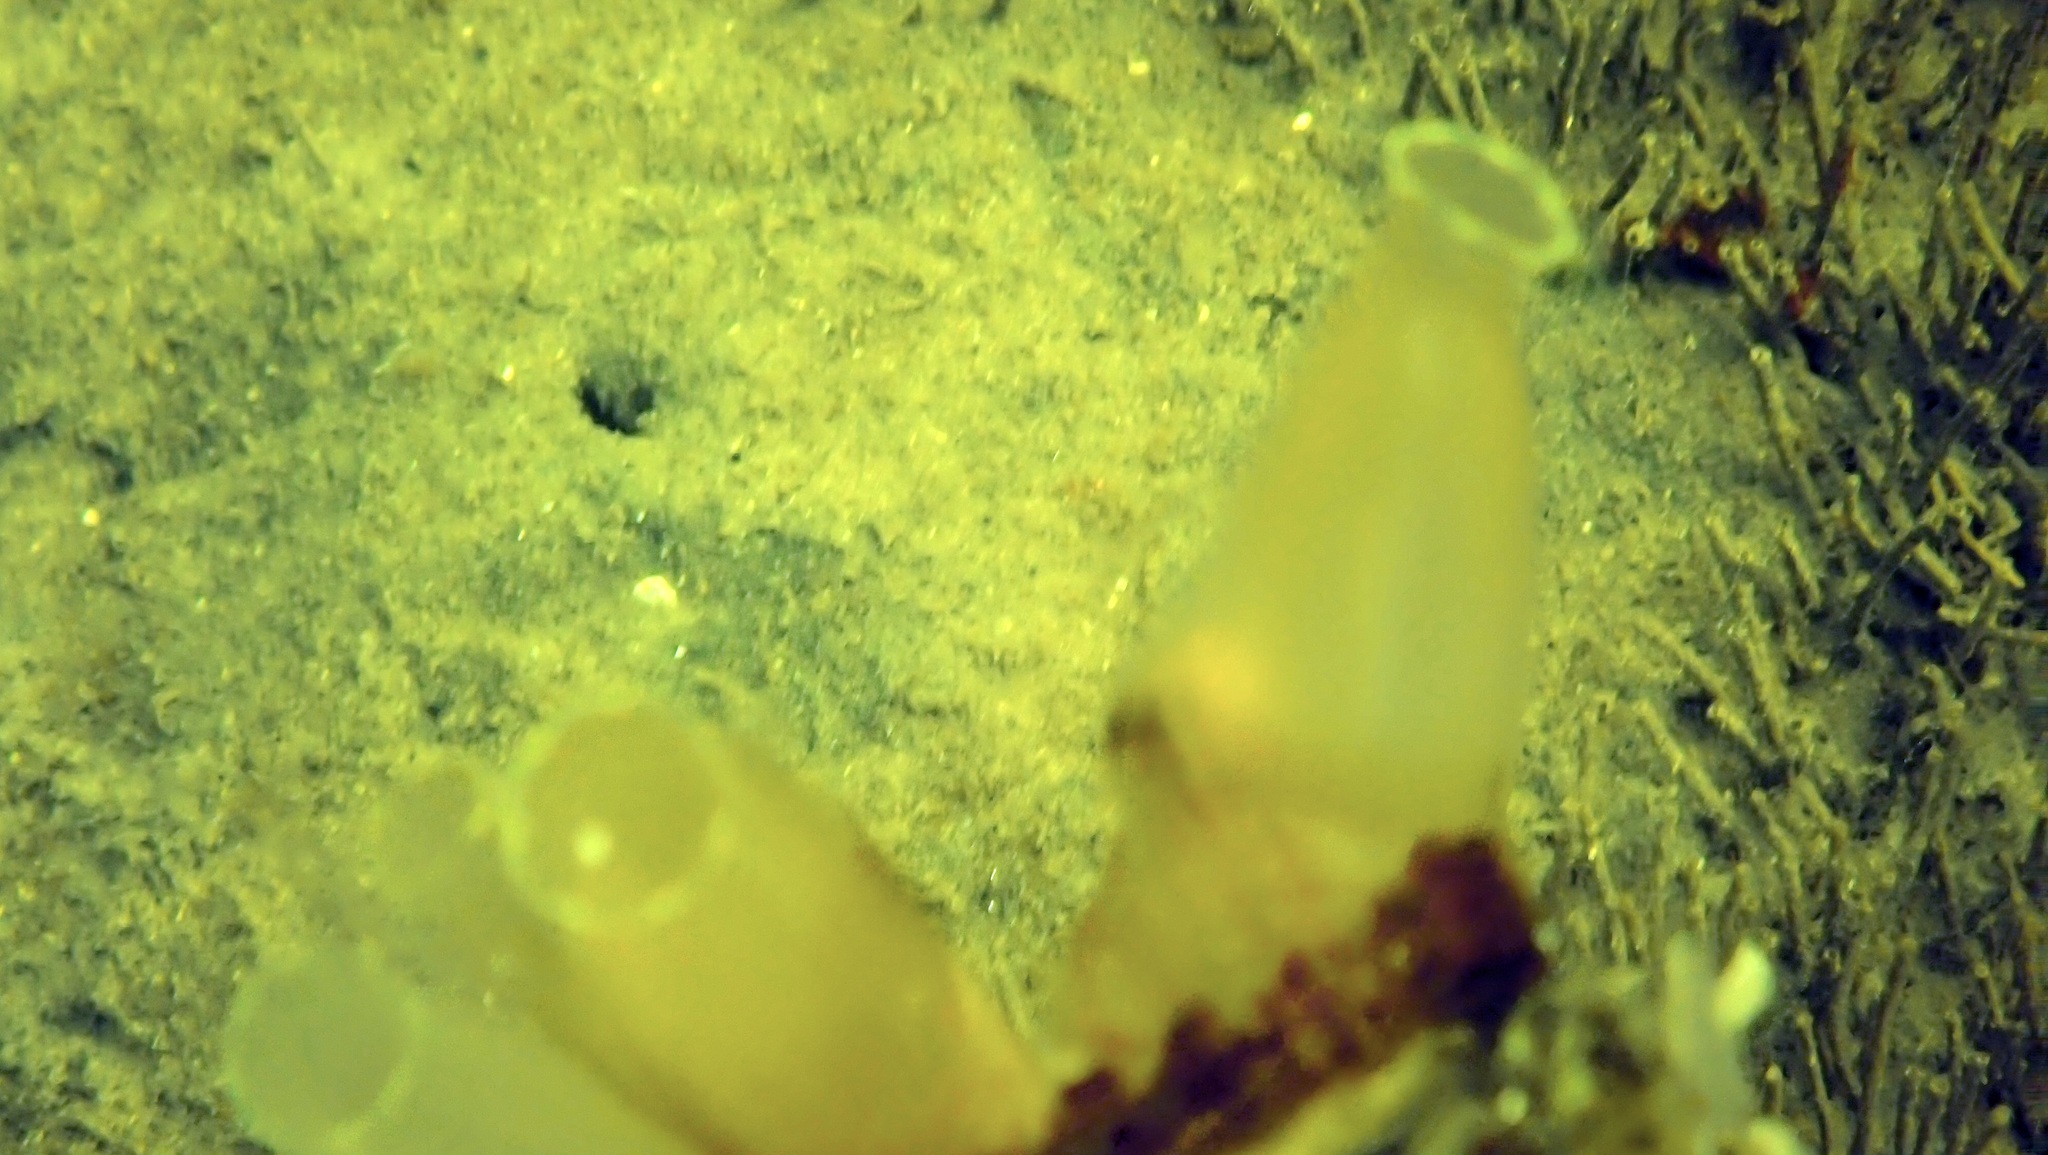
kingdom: Animalia
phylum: Chordata
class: Ascidiacea
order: Phlebobranchia
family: Cionidae
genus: Ciona
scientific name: Ciona intestinalis
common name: Vase tunicate
